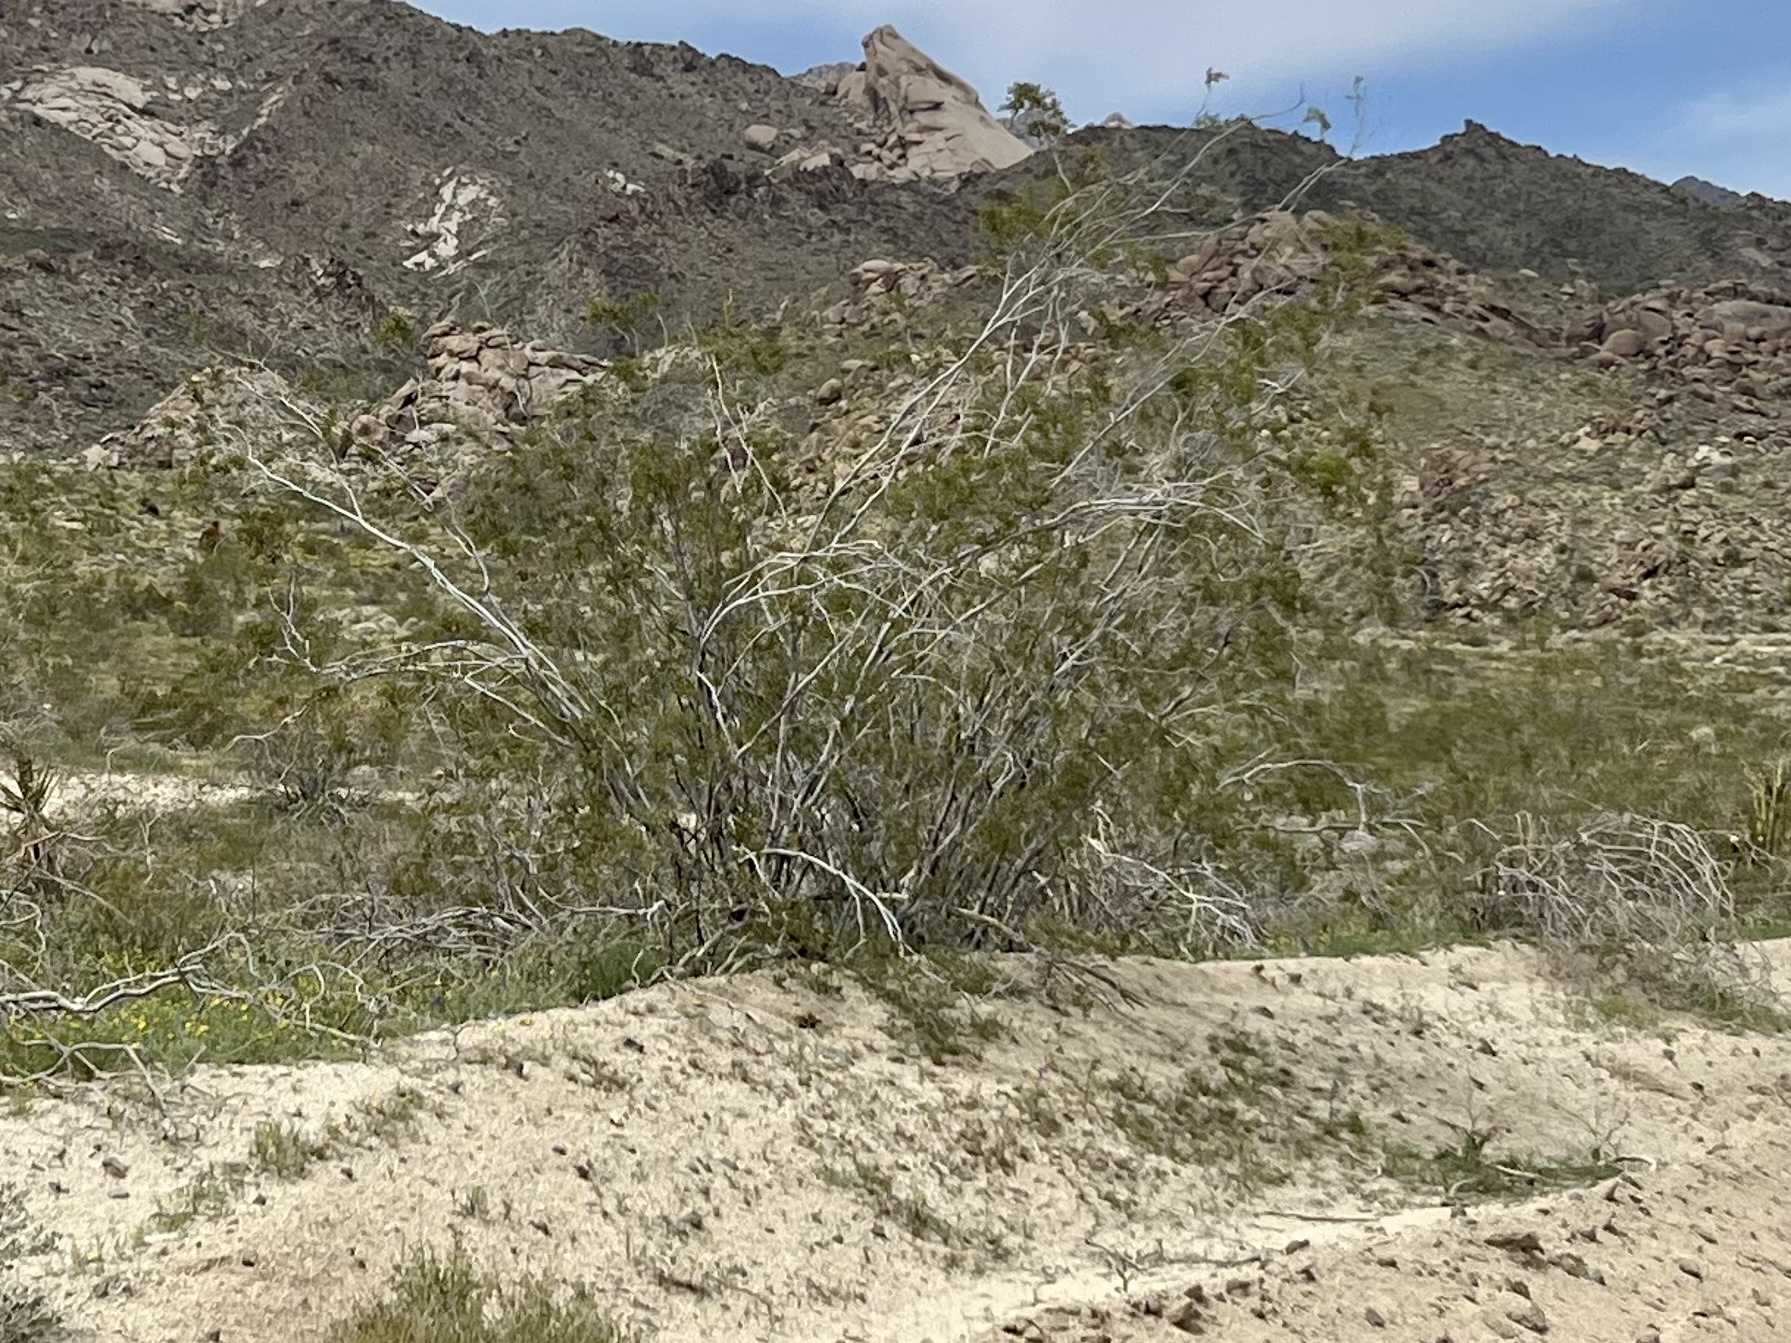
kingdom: Plantae
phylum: Tracheophyta
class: Magnoliopsida
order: Zygophyllales
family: Zygophyllaceae
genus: Larrea
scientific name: Larrea tridentata
